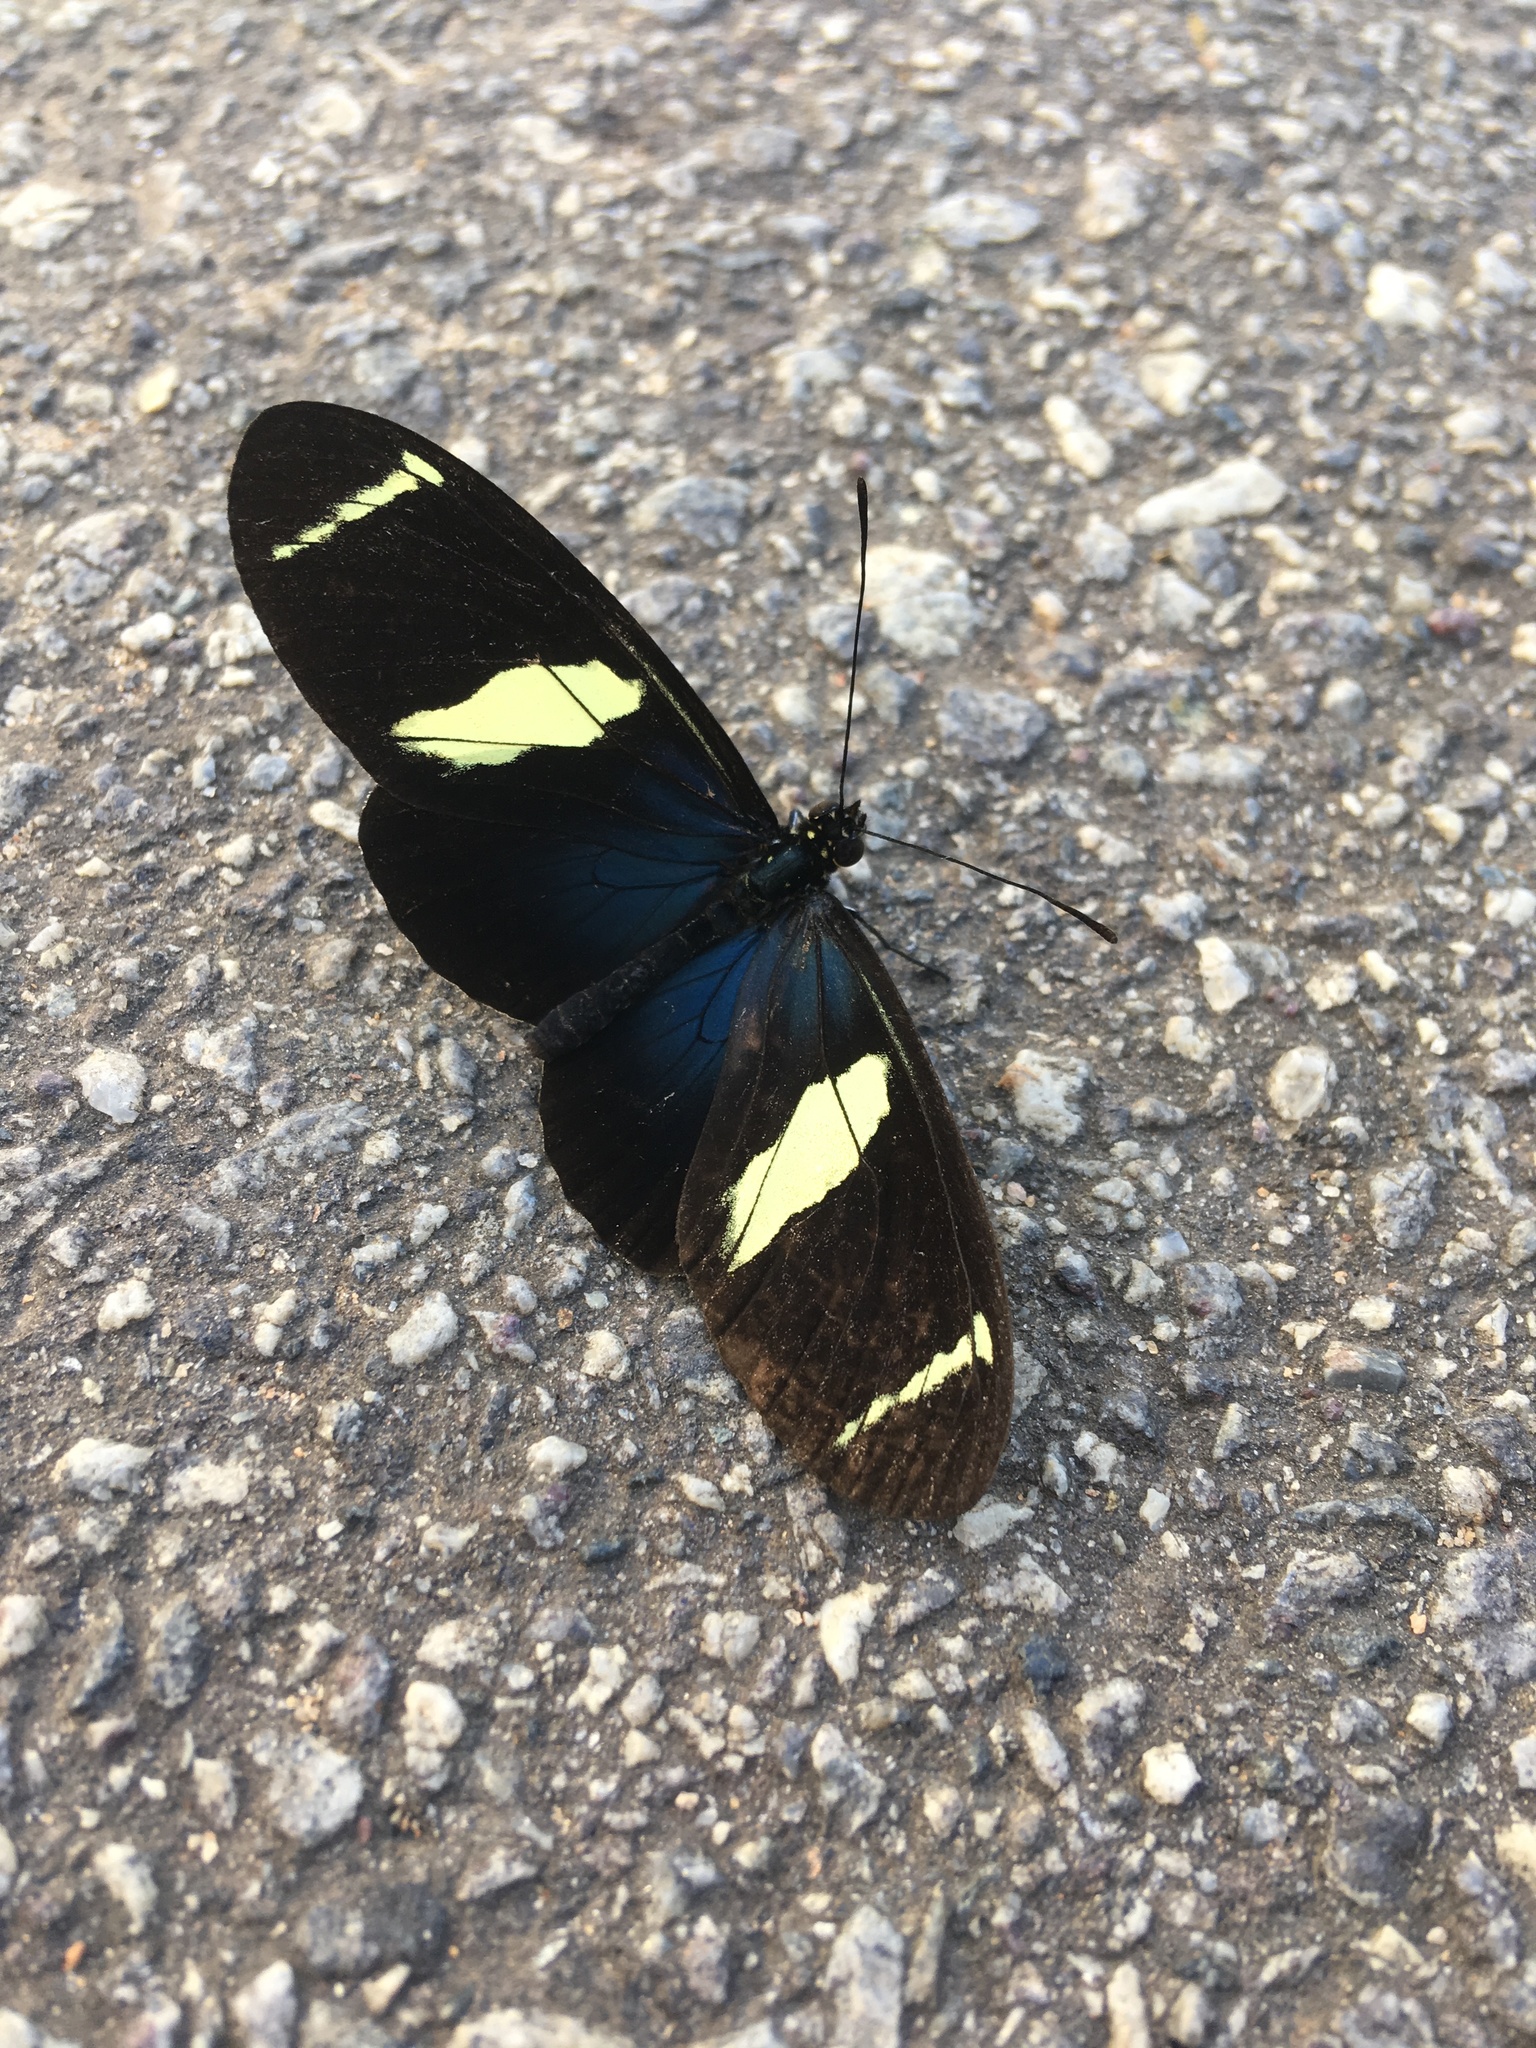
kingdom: Animalia
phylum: Arthropoda
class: Insecta
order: Lepidoptera
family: Nymphalidae
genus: Heliconius
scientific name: Heliconius sara
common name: Sara longwing
